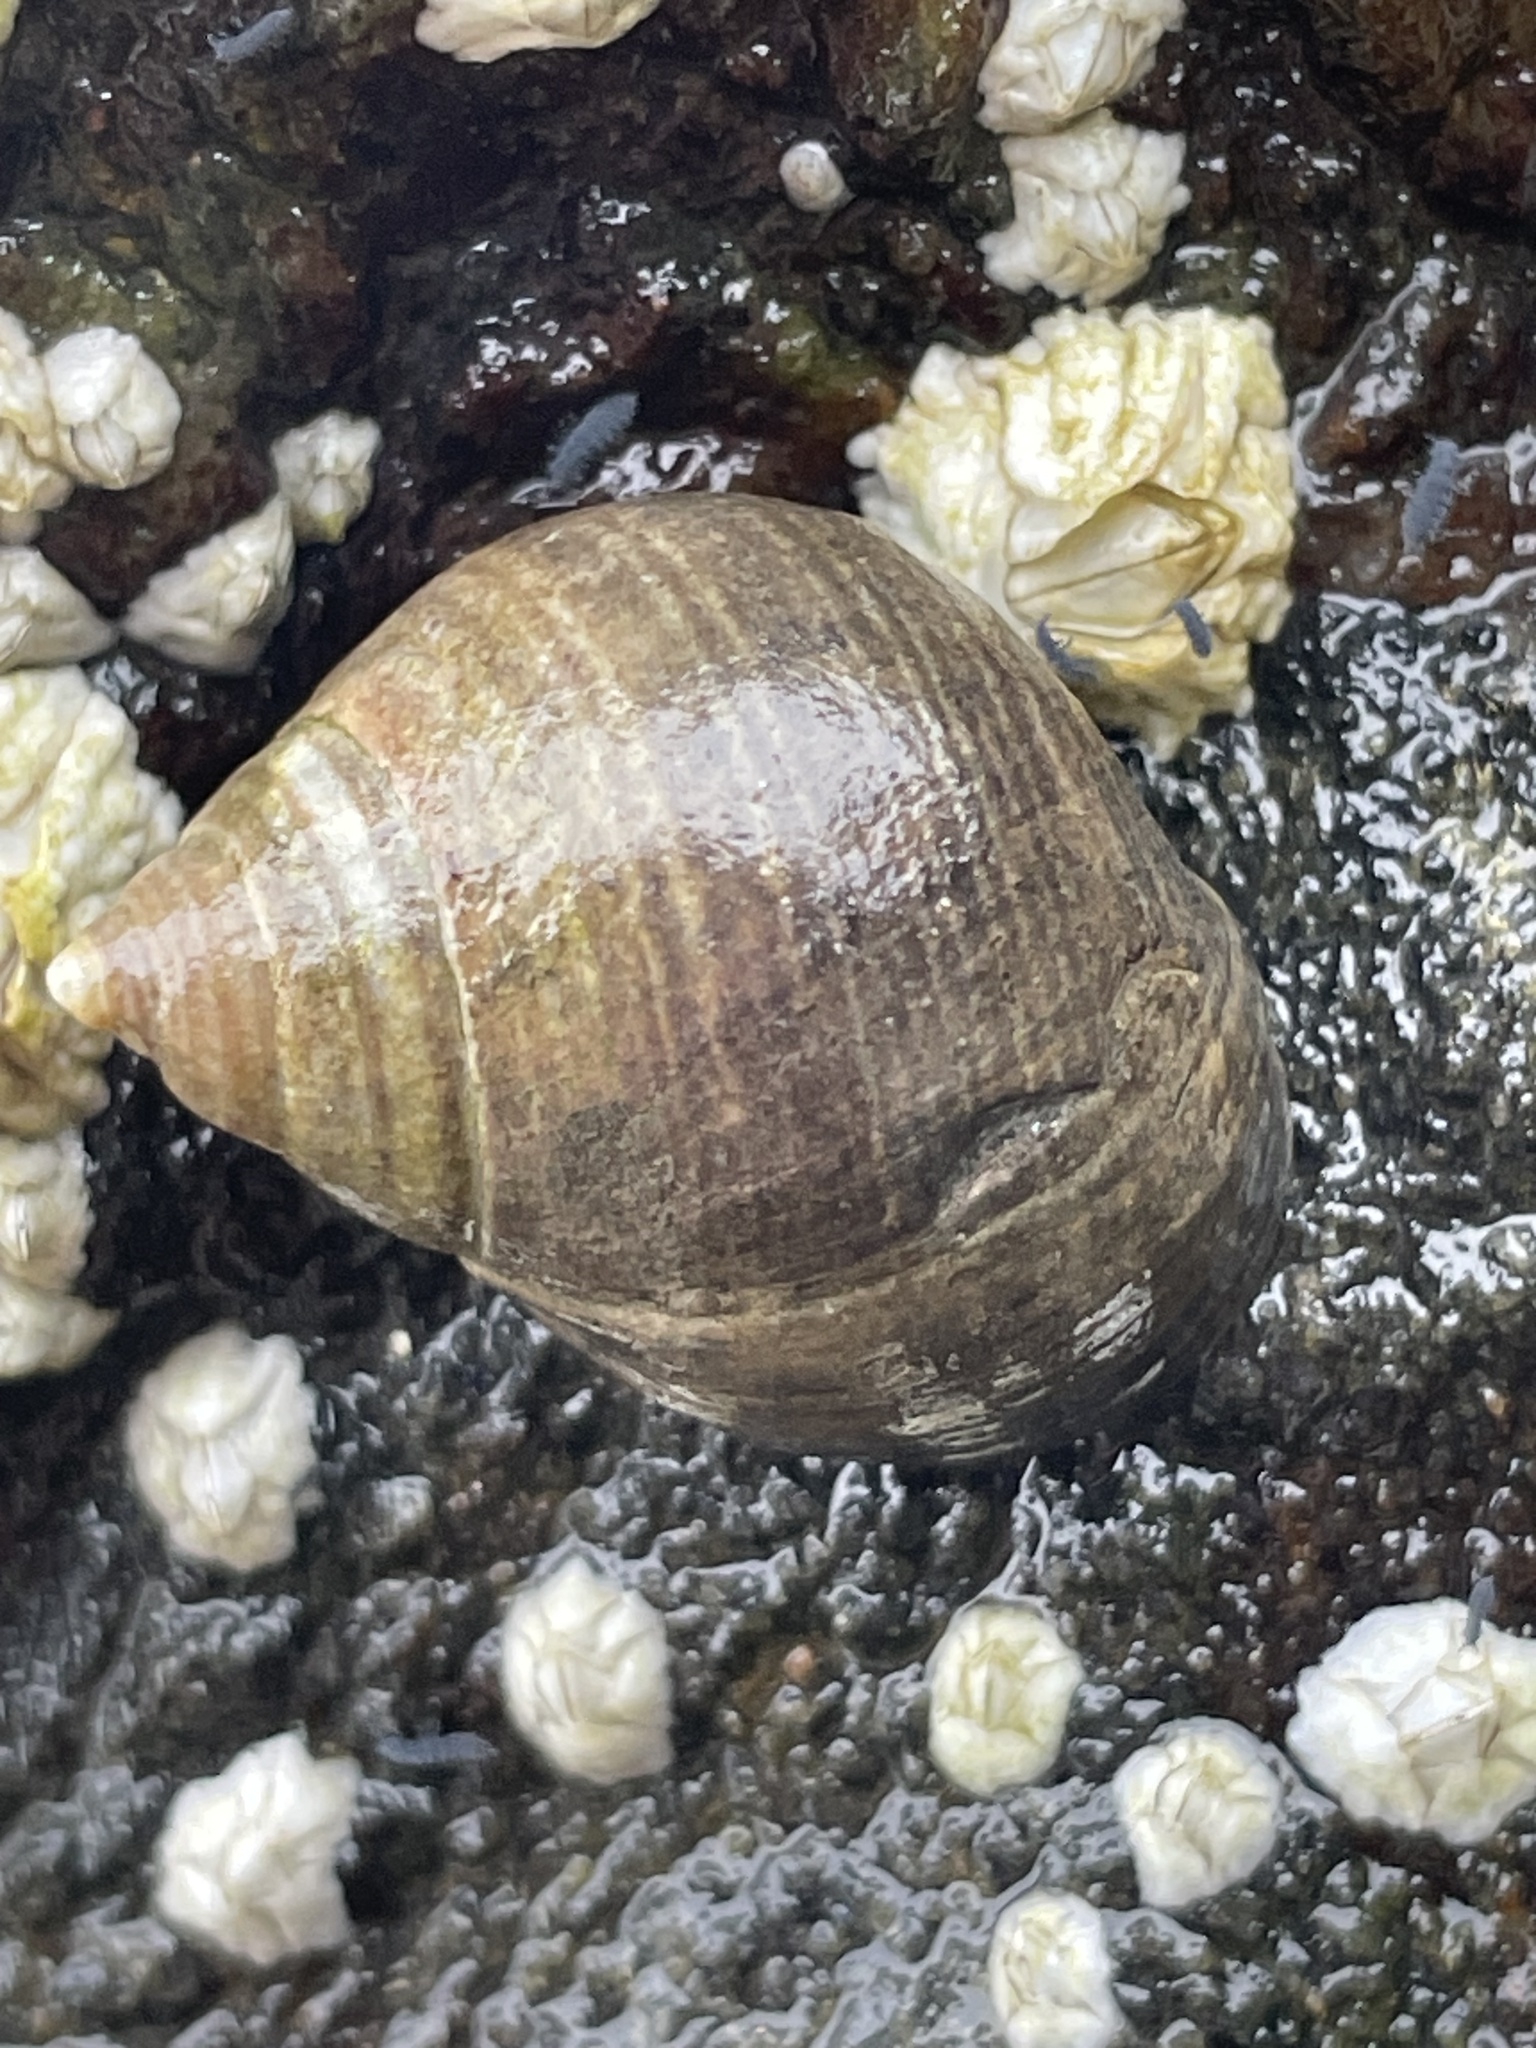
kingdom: Animalia
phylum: Mollusca
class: Gastropoda
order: Littorinimorpha
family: Littorinidae
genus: Littorina
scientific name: Littorina littorea
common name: Common periwinkle
